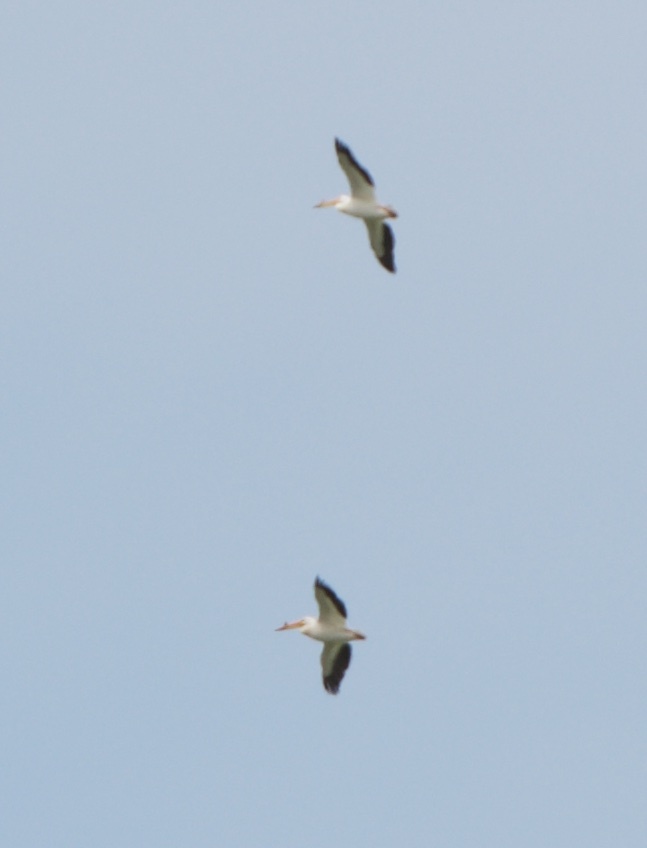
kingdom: Animalia
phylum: Chordata
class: Aves
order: Pelecaniformes
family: Pelecanidae
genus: Pelecanus
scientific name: Pelecanus erythrorhynchos
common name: American white pelican
